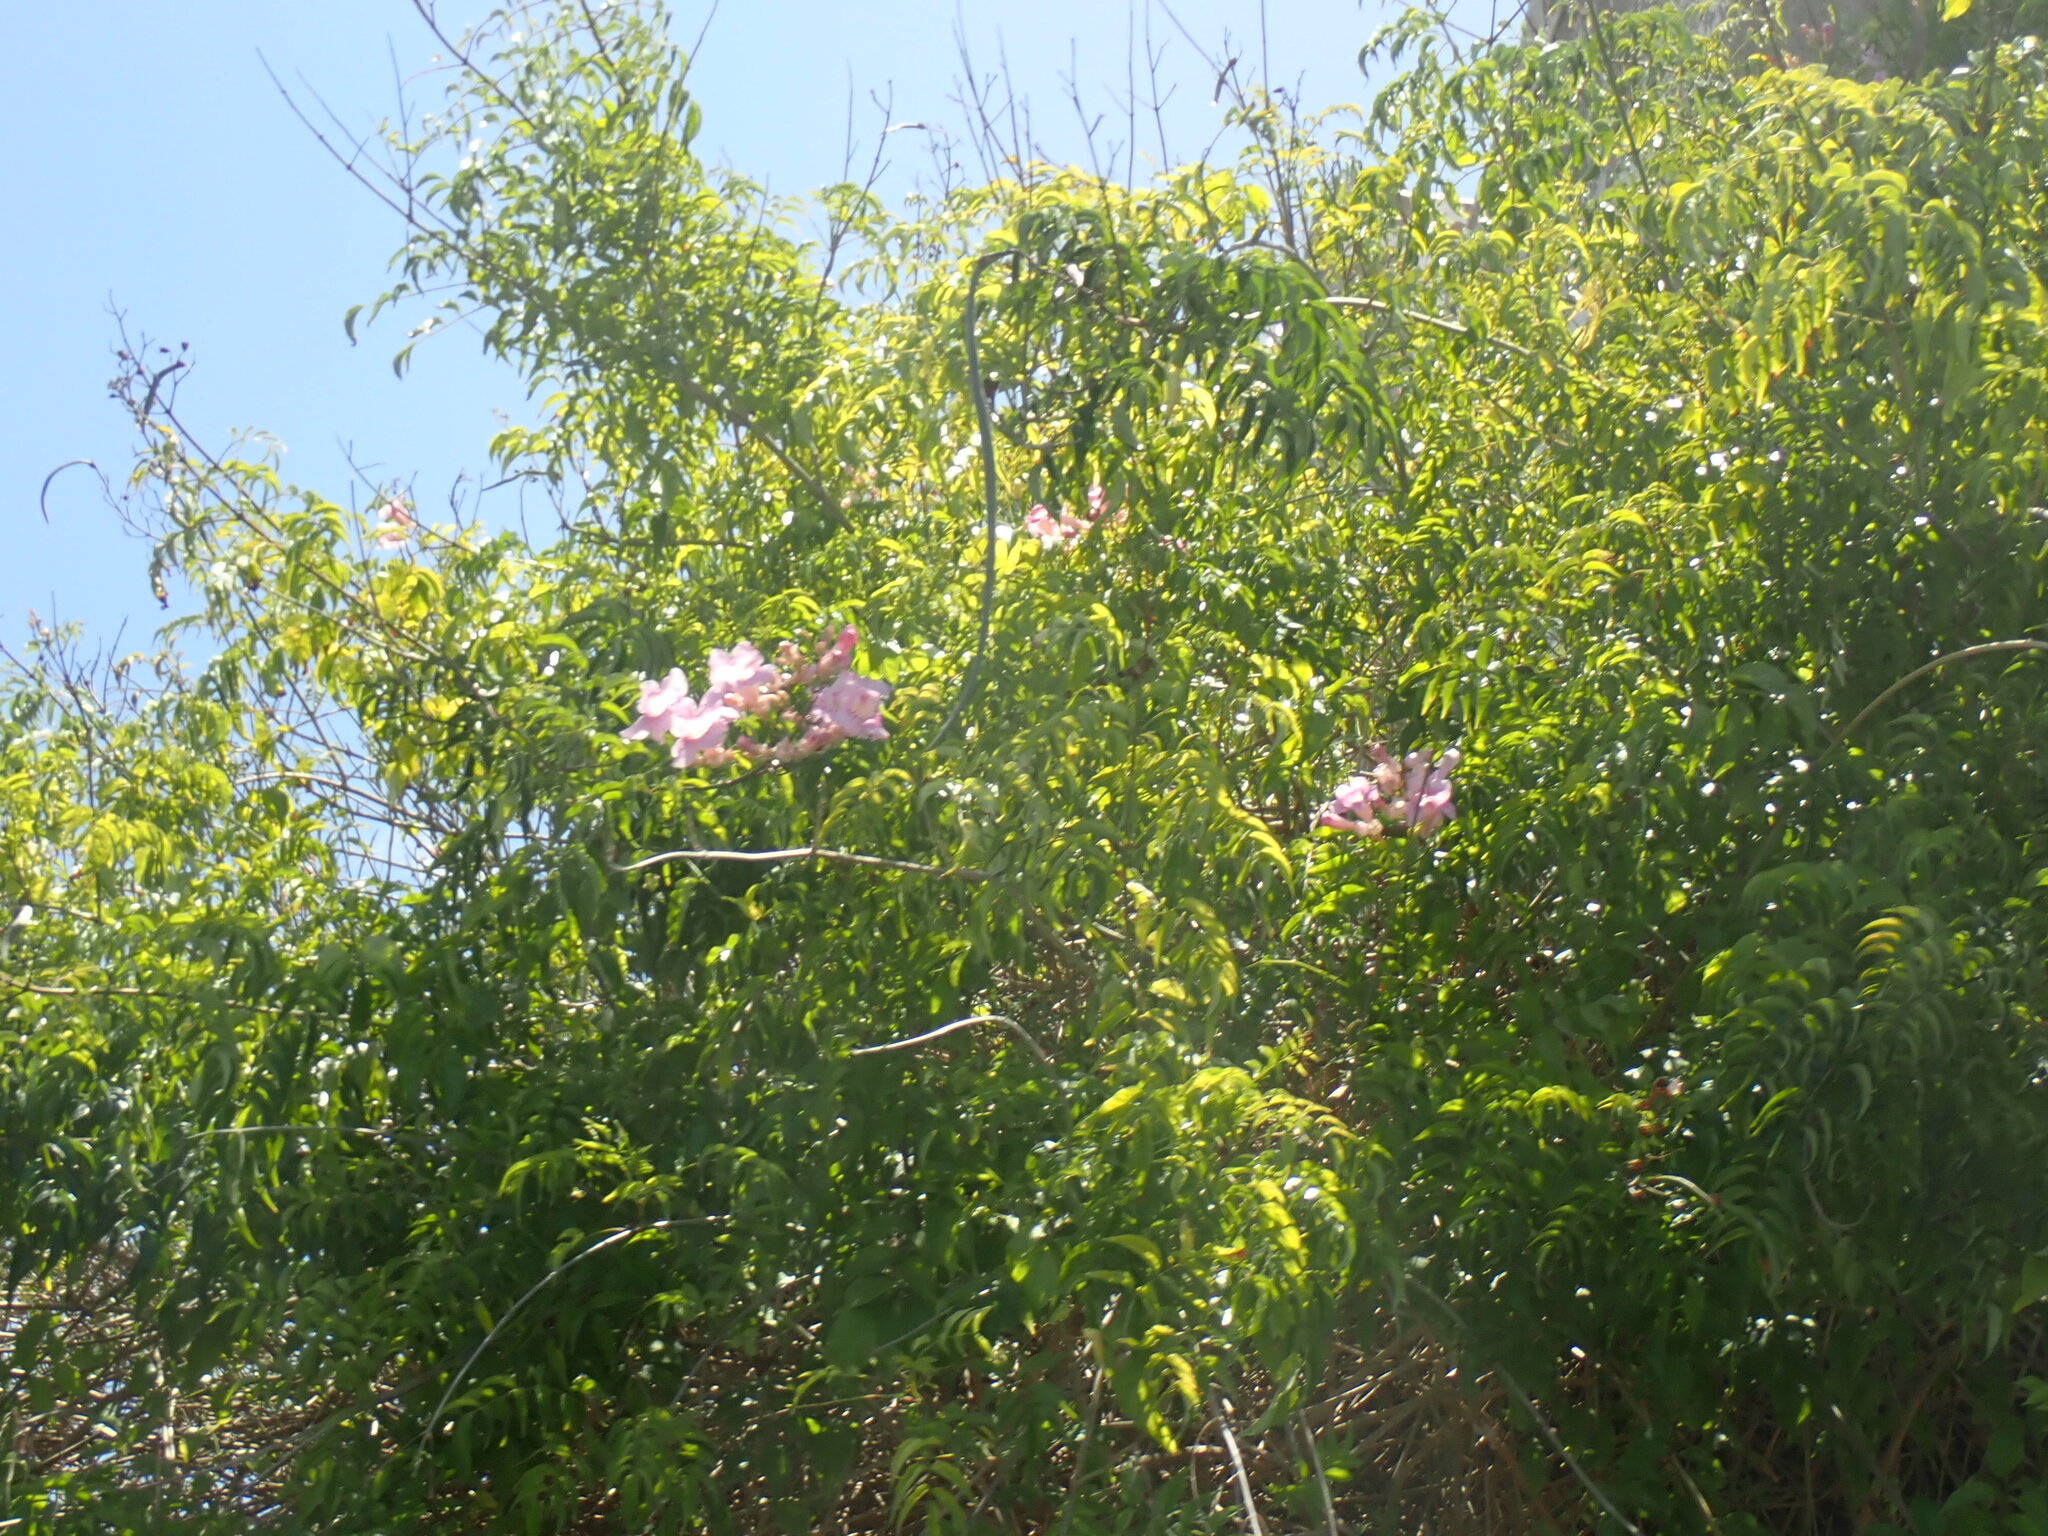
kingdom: Plantae
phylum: Tracheophyta
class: Magnoliopsida
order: Lamiales
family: Bignoniaceae
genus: Podranea
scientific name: Podranea ricasoliana
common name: Zimbabwe creeper
